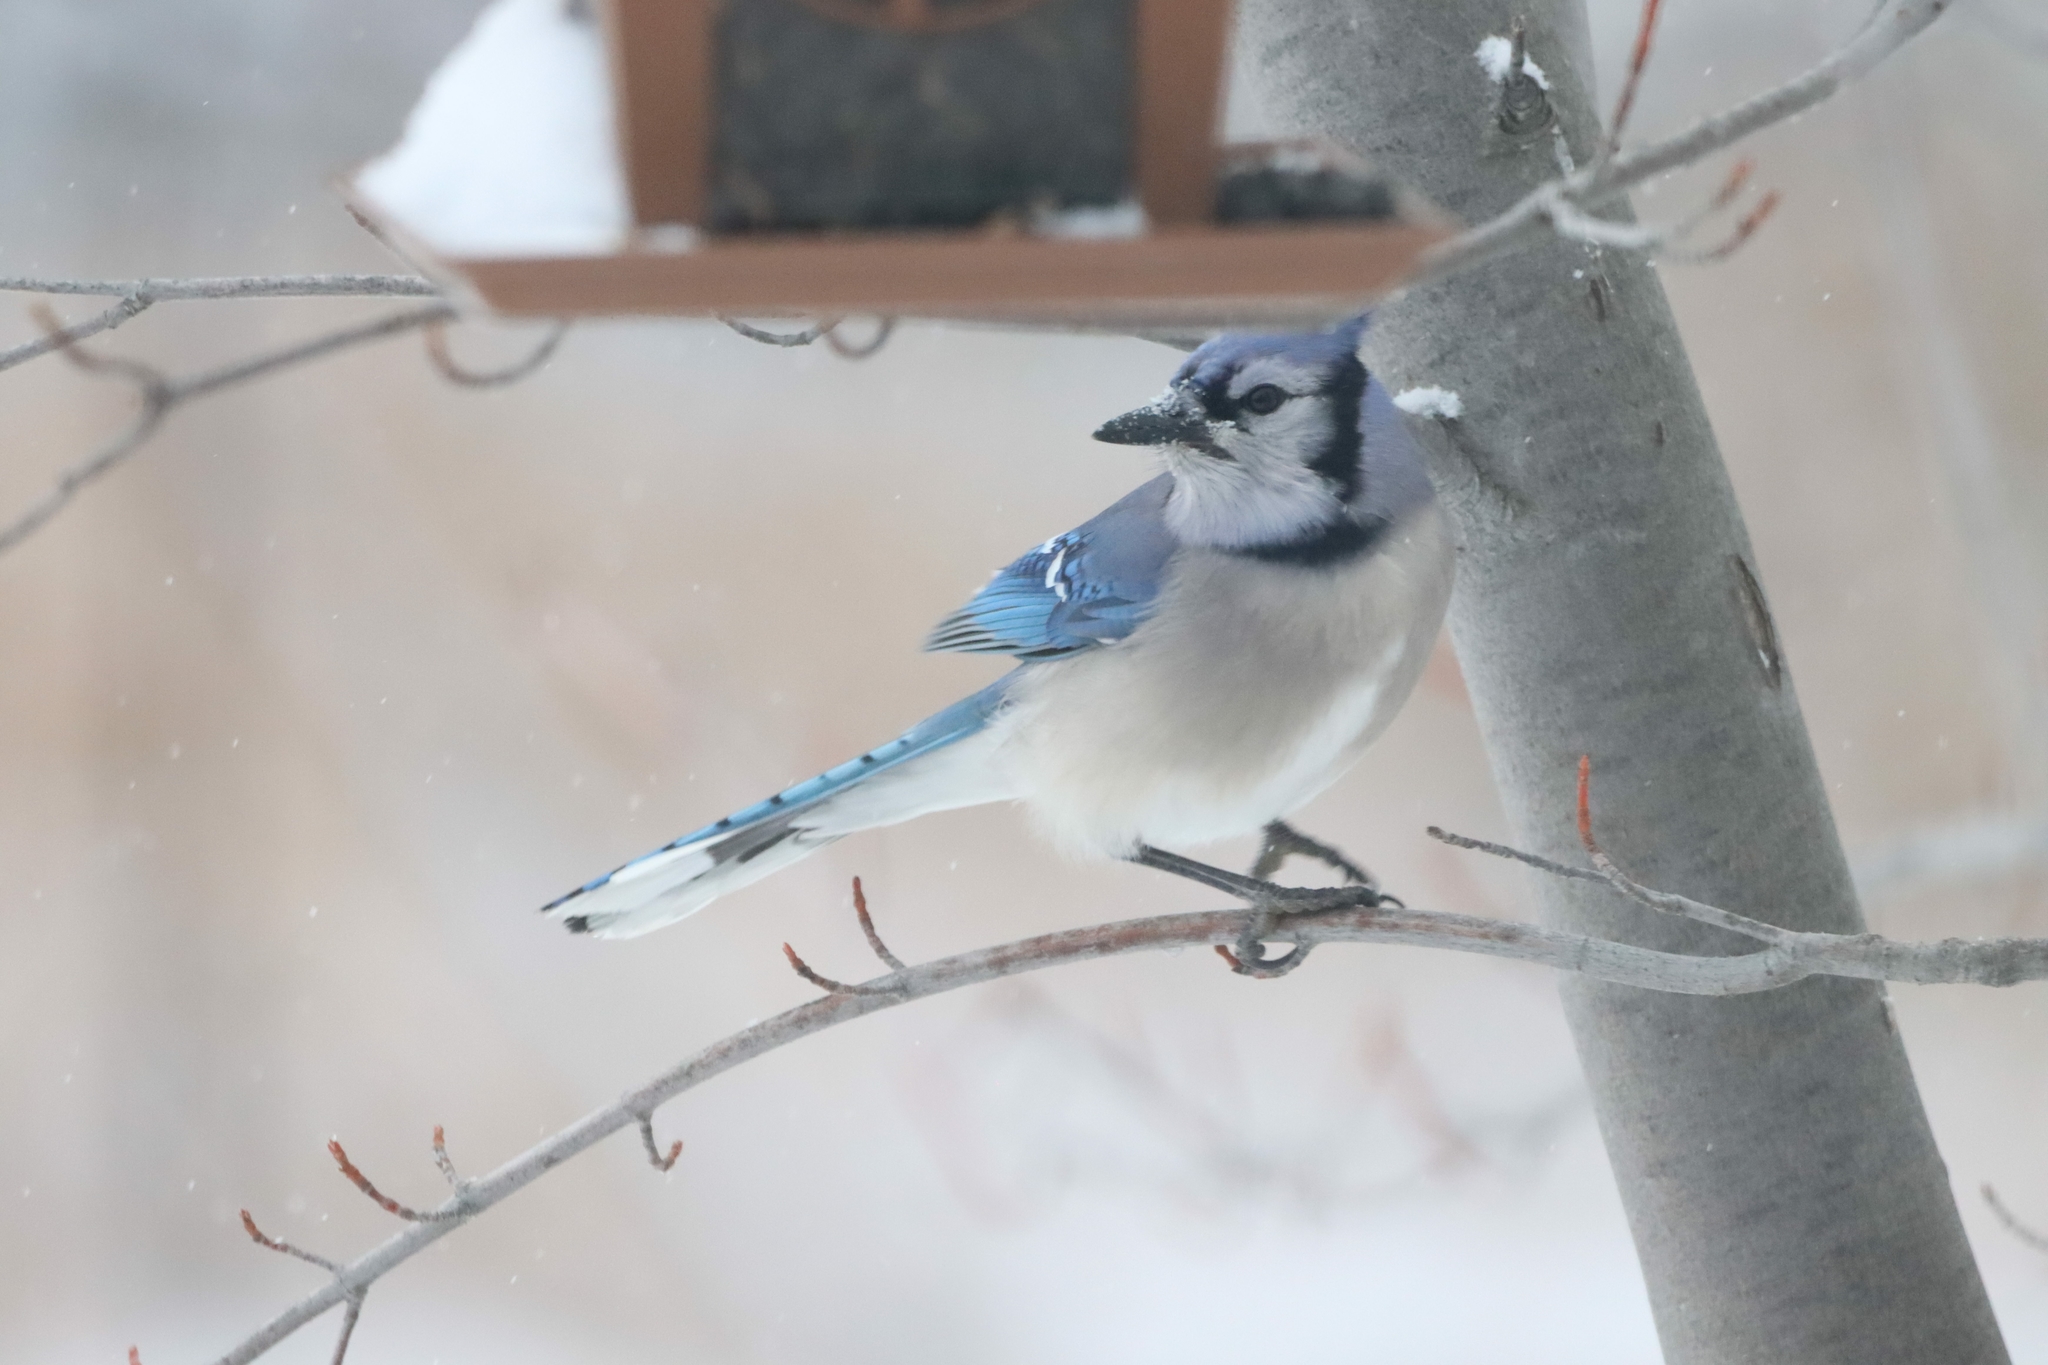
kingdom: Animalia
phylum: Chordata
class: Aves
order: Passeriformes
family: Corvidae
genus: Cyanocitta
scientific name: Cyanocitta cristata
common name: Blue jay
